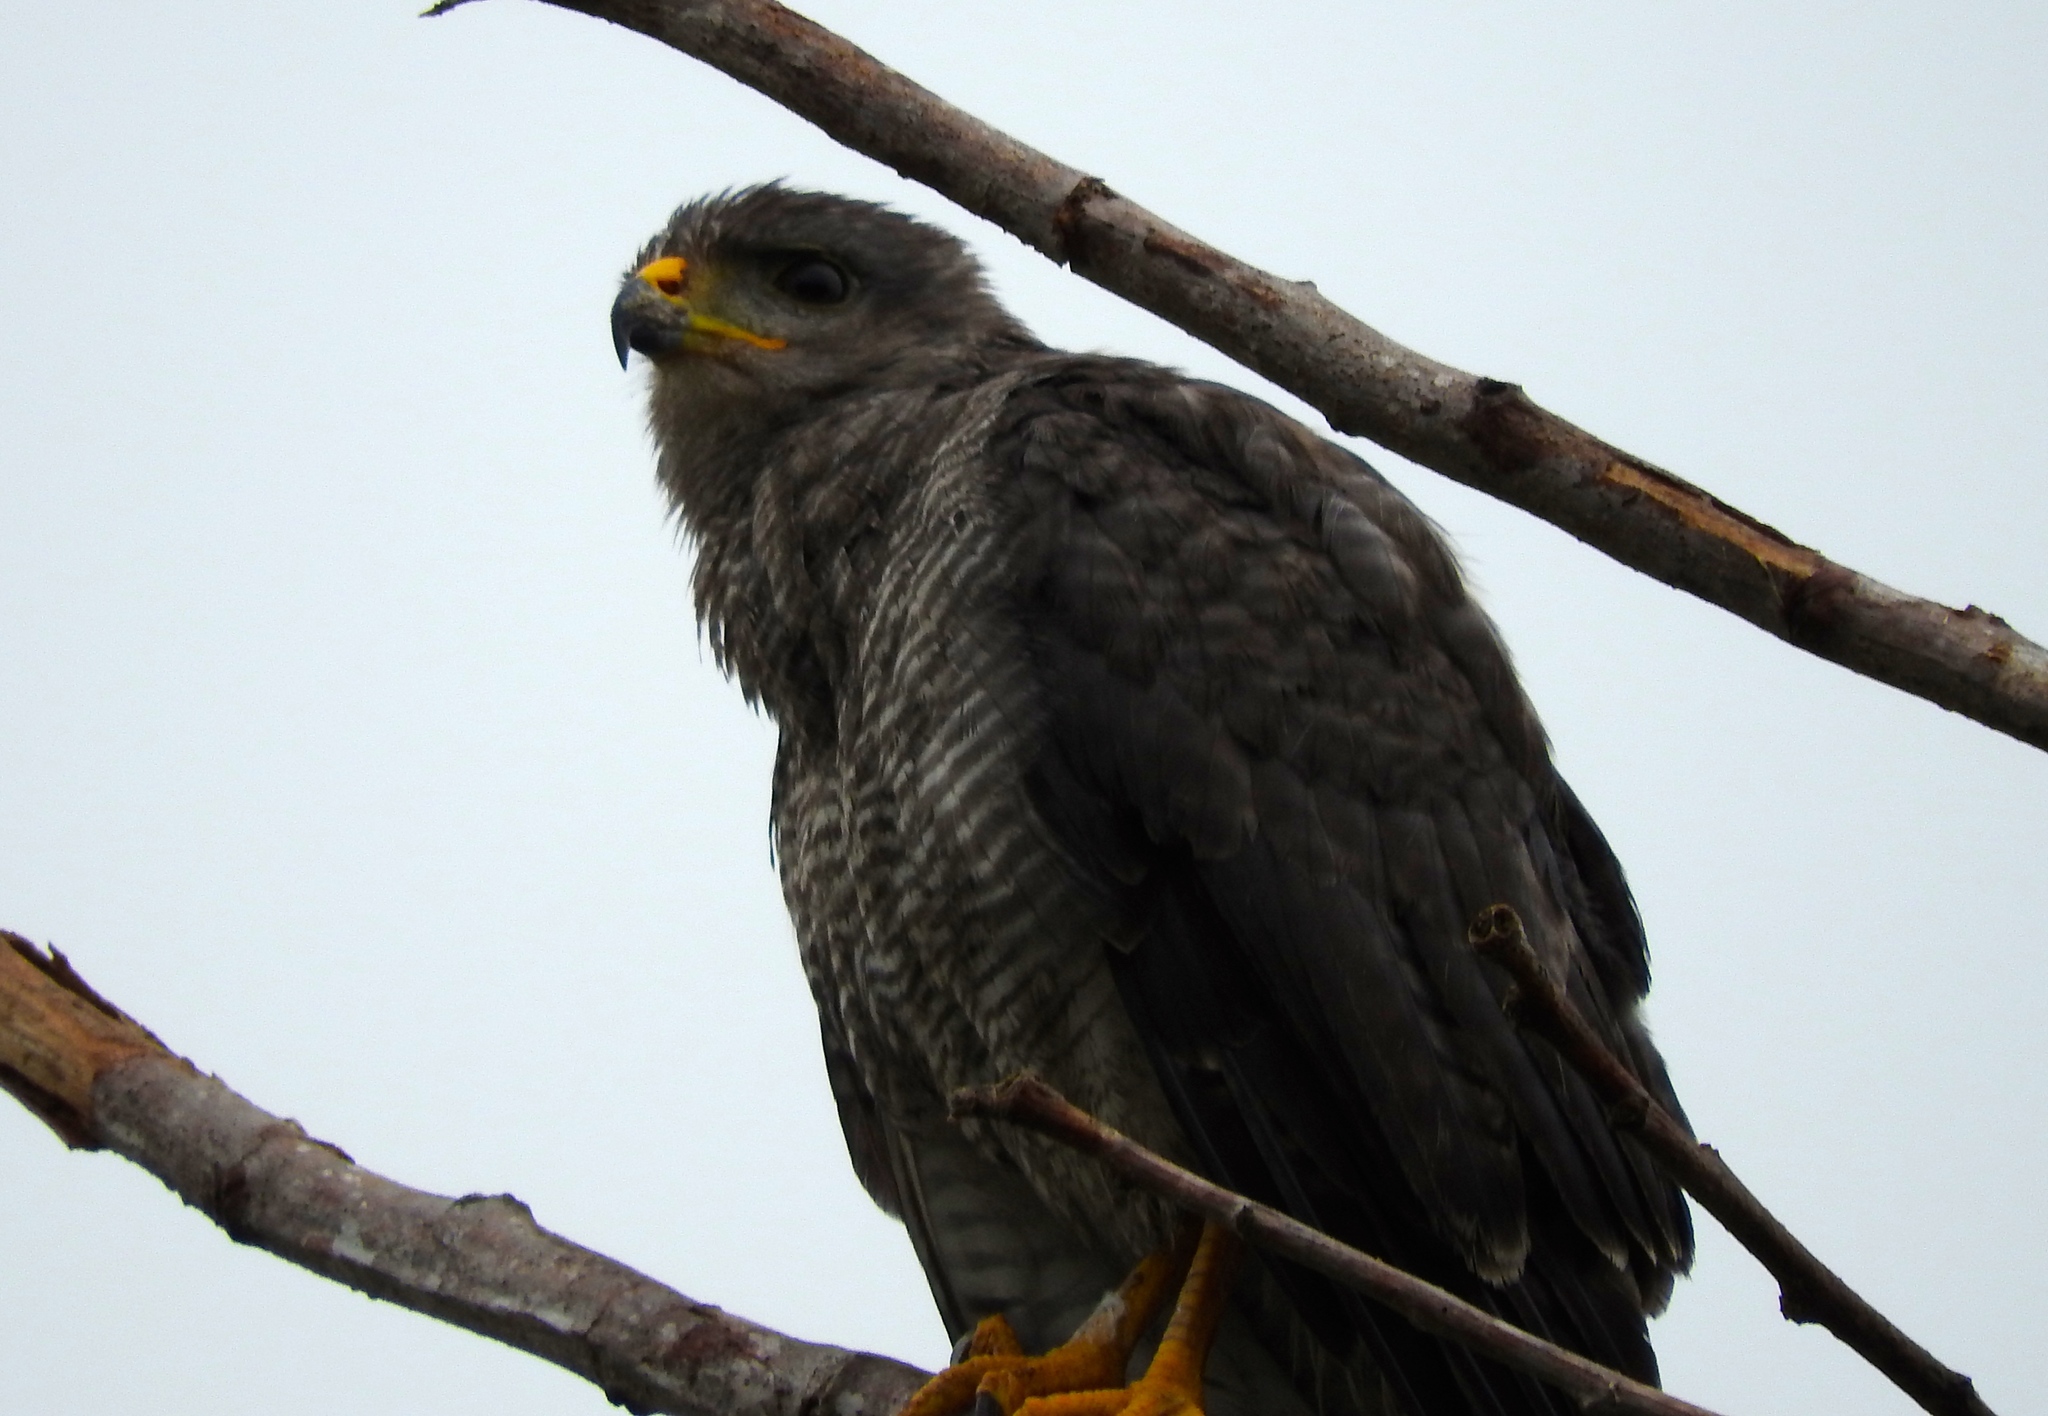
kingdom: Animalia
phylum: Chordata
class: Aves
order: Accipitriformes
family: Accipitridae
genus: Buteo
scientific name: Buteo nitidus
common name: Grey-lined hawk
